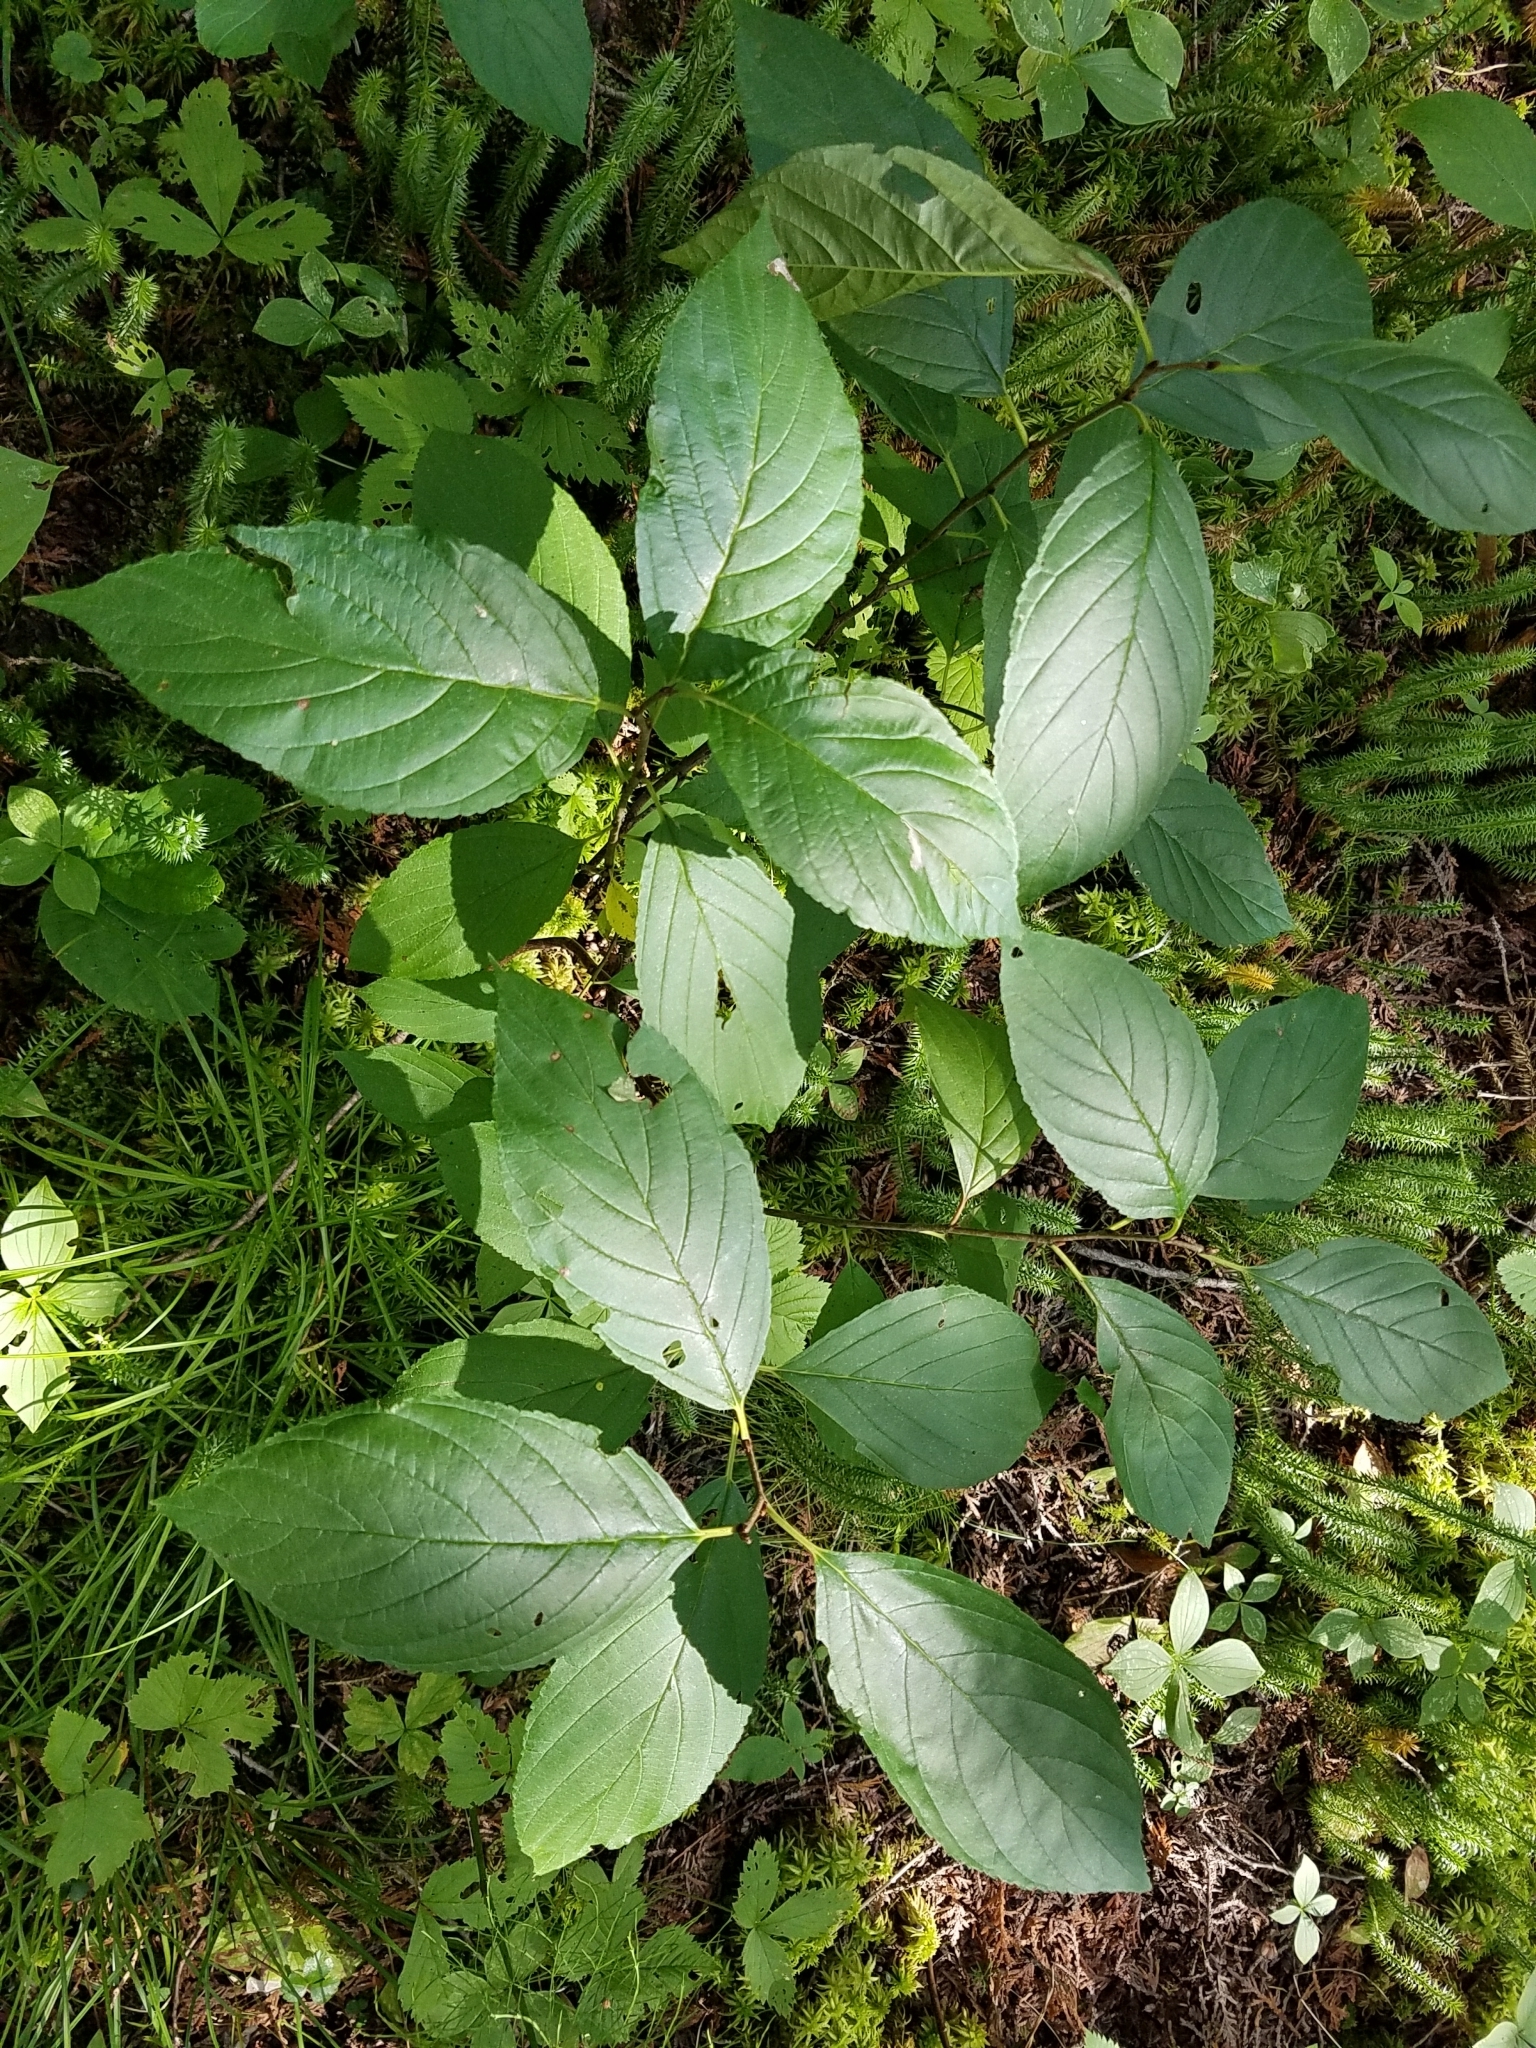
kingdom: Plantae
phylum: Tracheophyta
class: Magnoliopsida
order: Rosales
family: Rhamnaceae
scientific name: Rhamnaceae
